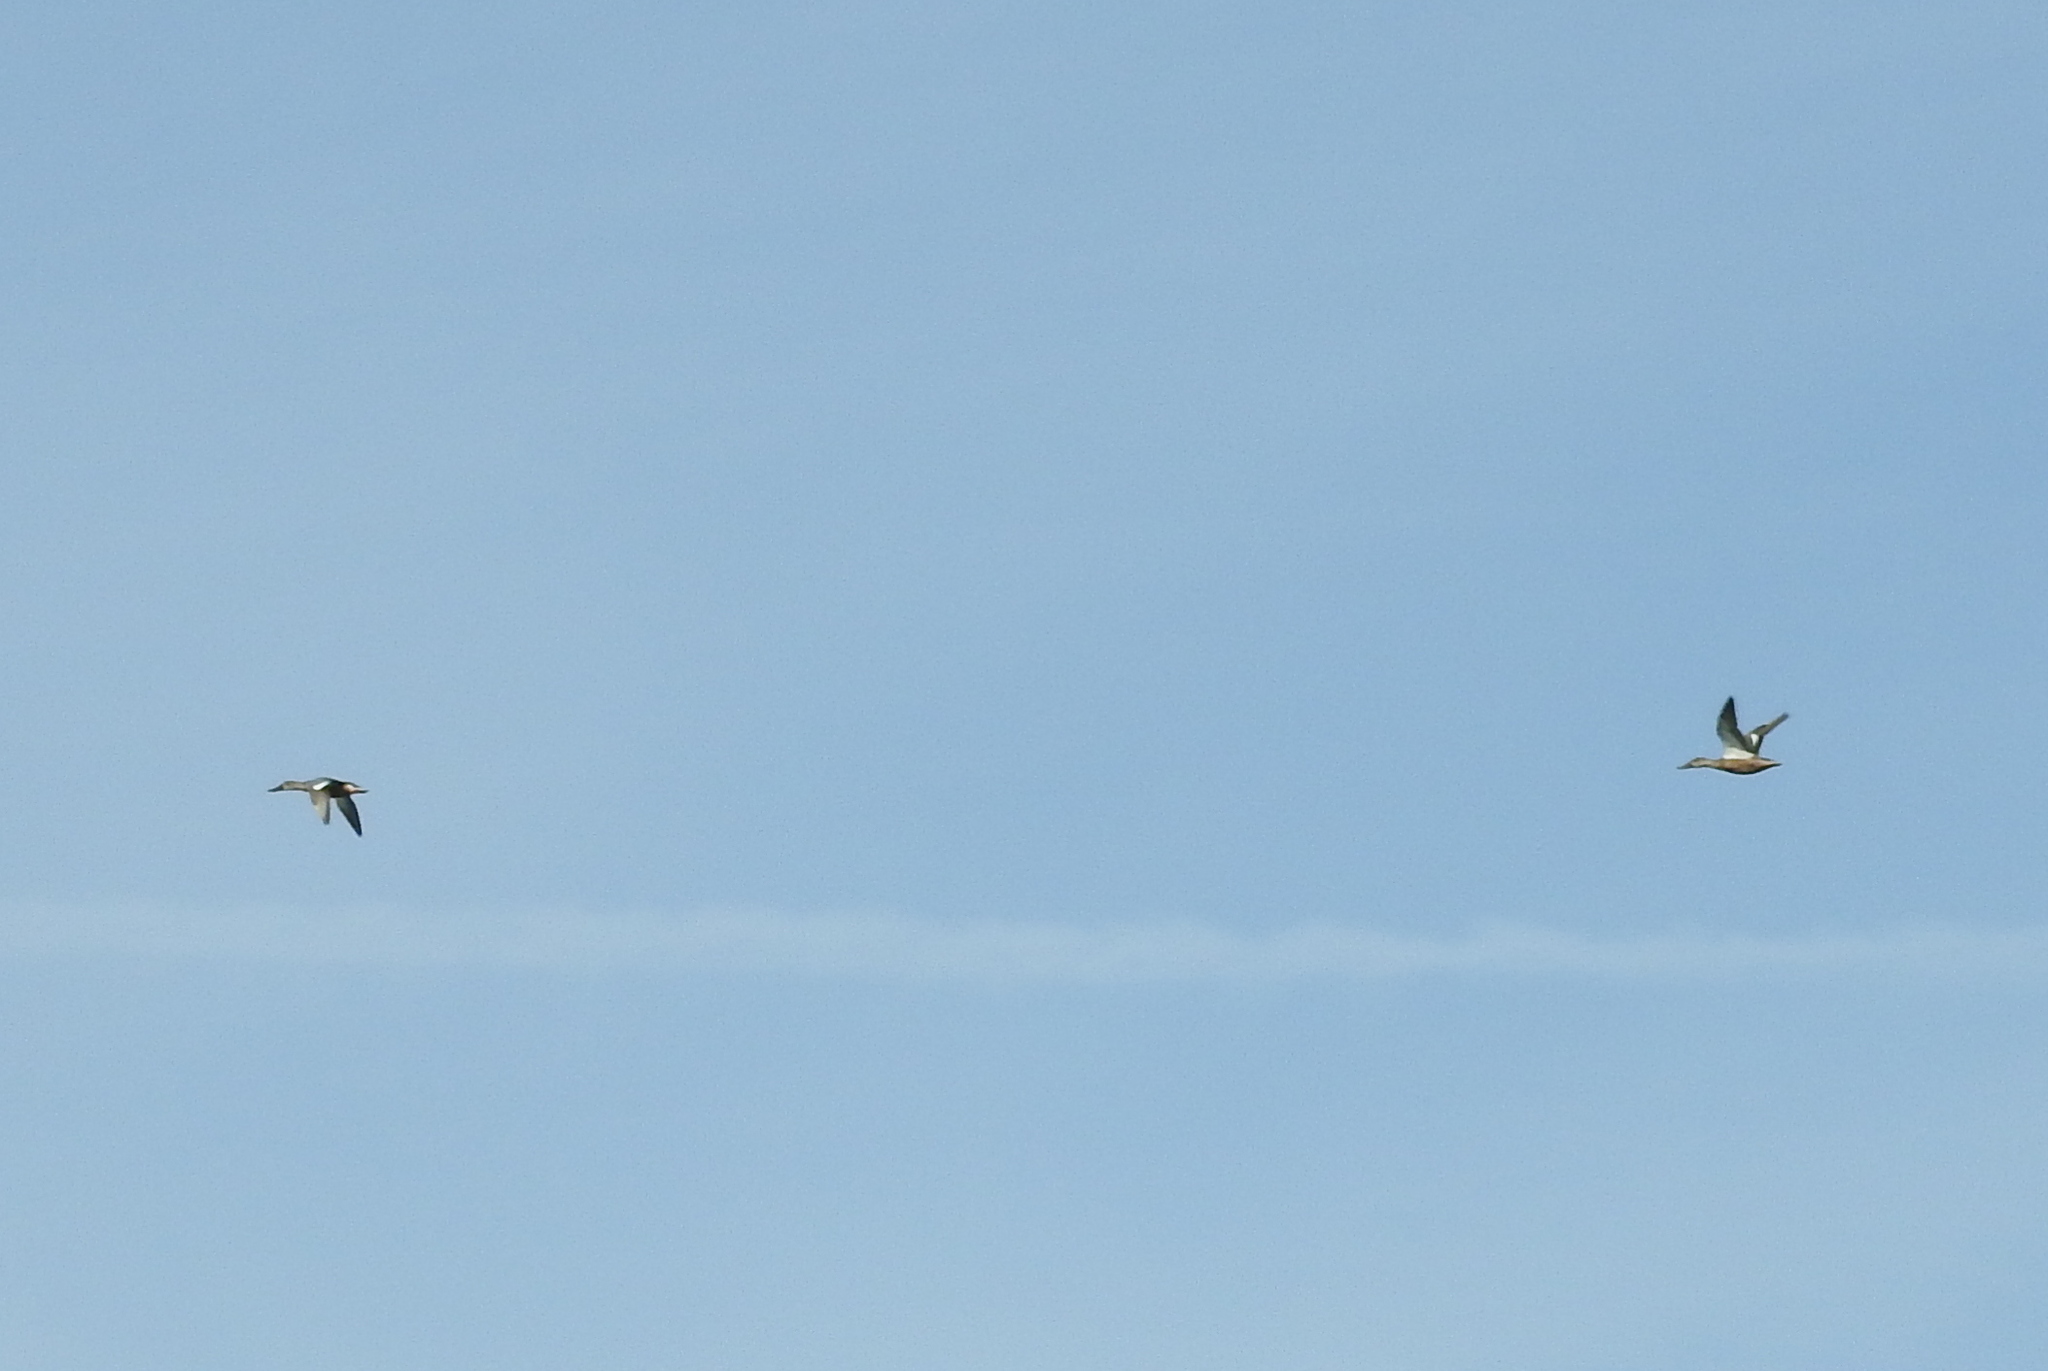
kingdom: Animalia
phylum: Chordata
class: Aves
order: Anseriformes
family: Anatidae
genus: Spatula
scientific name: Spatula clypeata
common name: Northern shoveler
